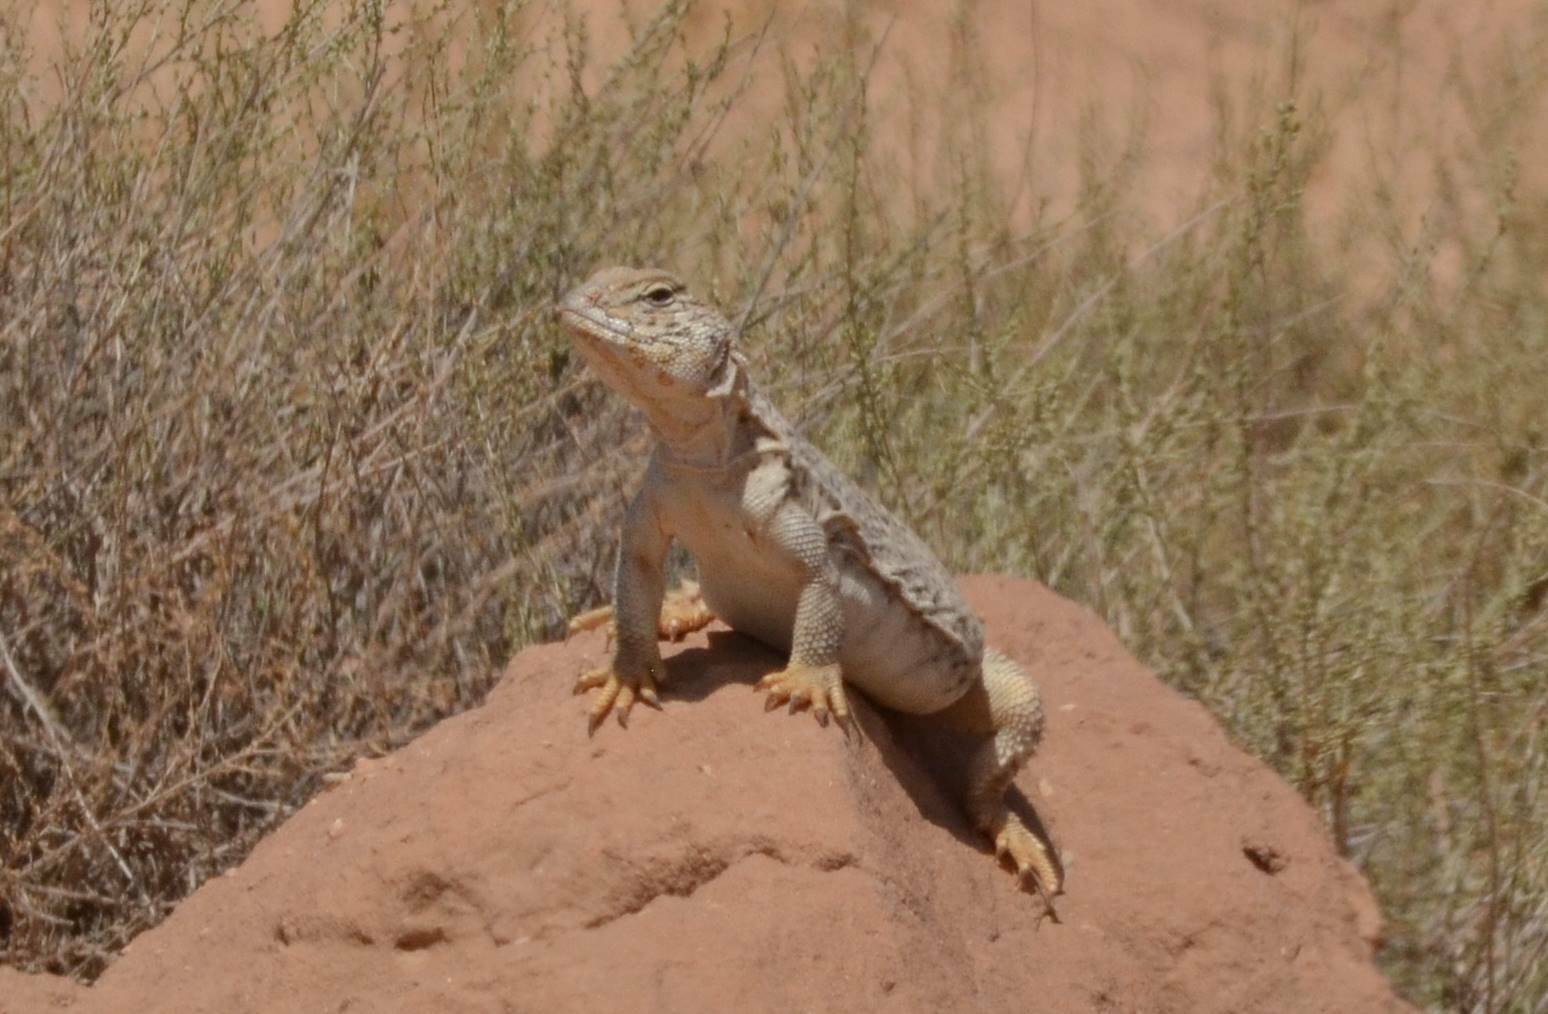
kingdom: Animalia
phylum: Chordata
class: Squamata
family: Agamidae
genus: Uromastyx
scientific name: Uromastyx acanthinura
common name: Dabba mastigure
